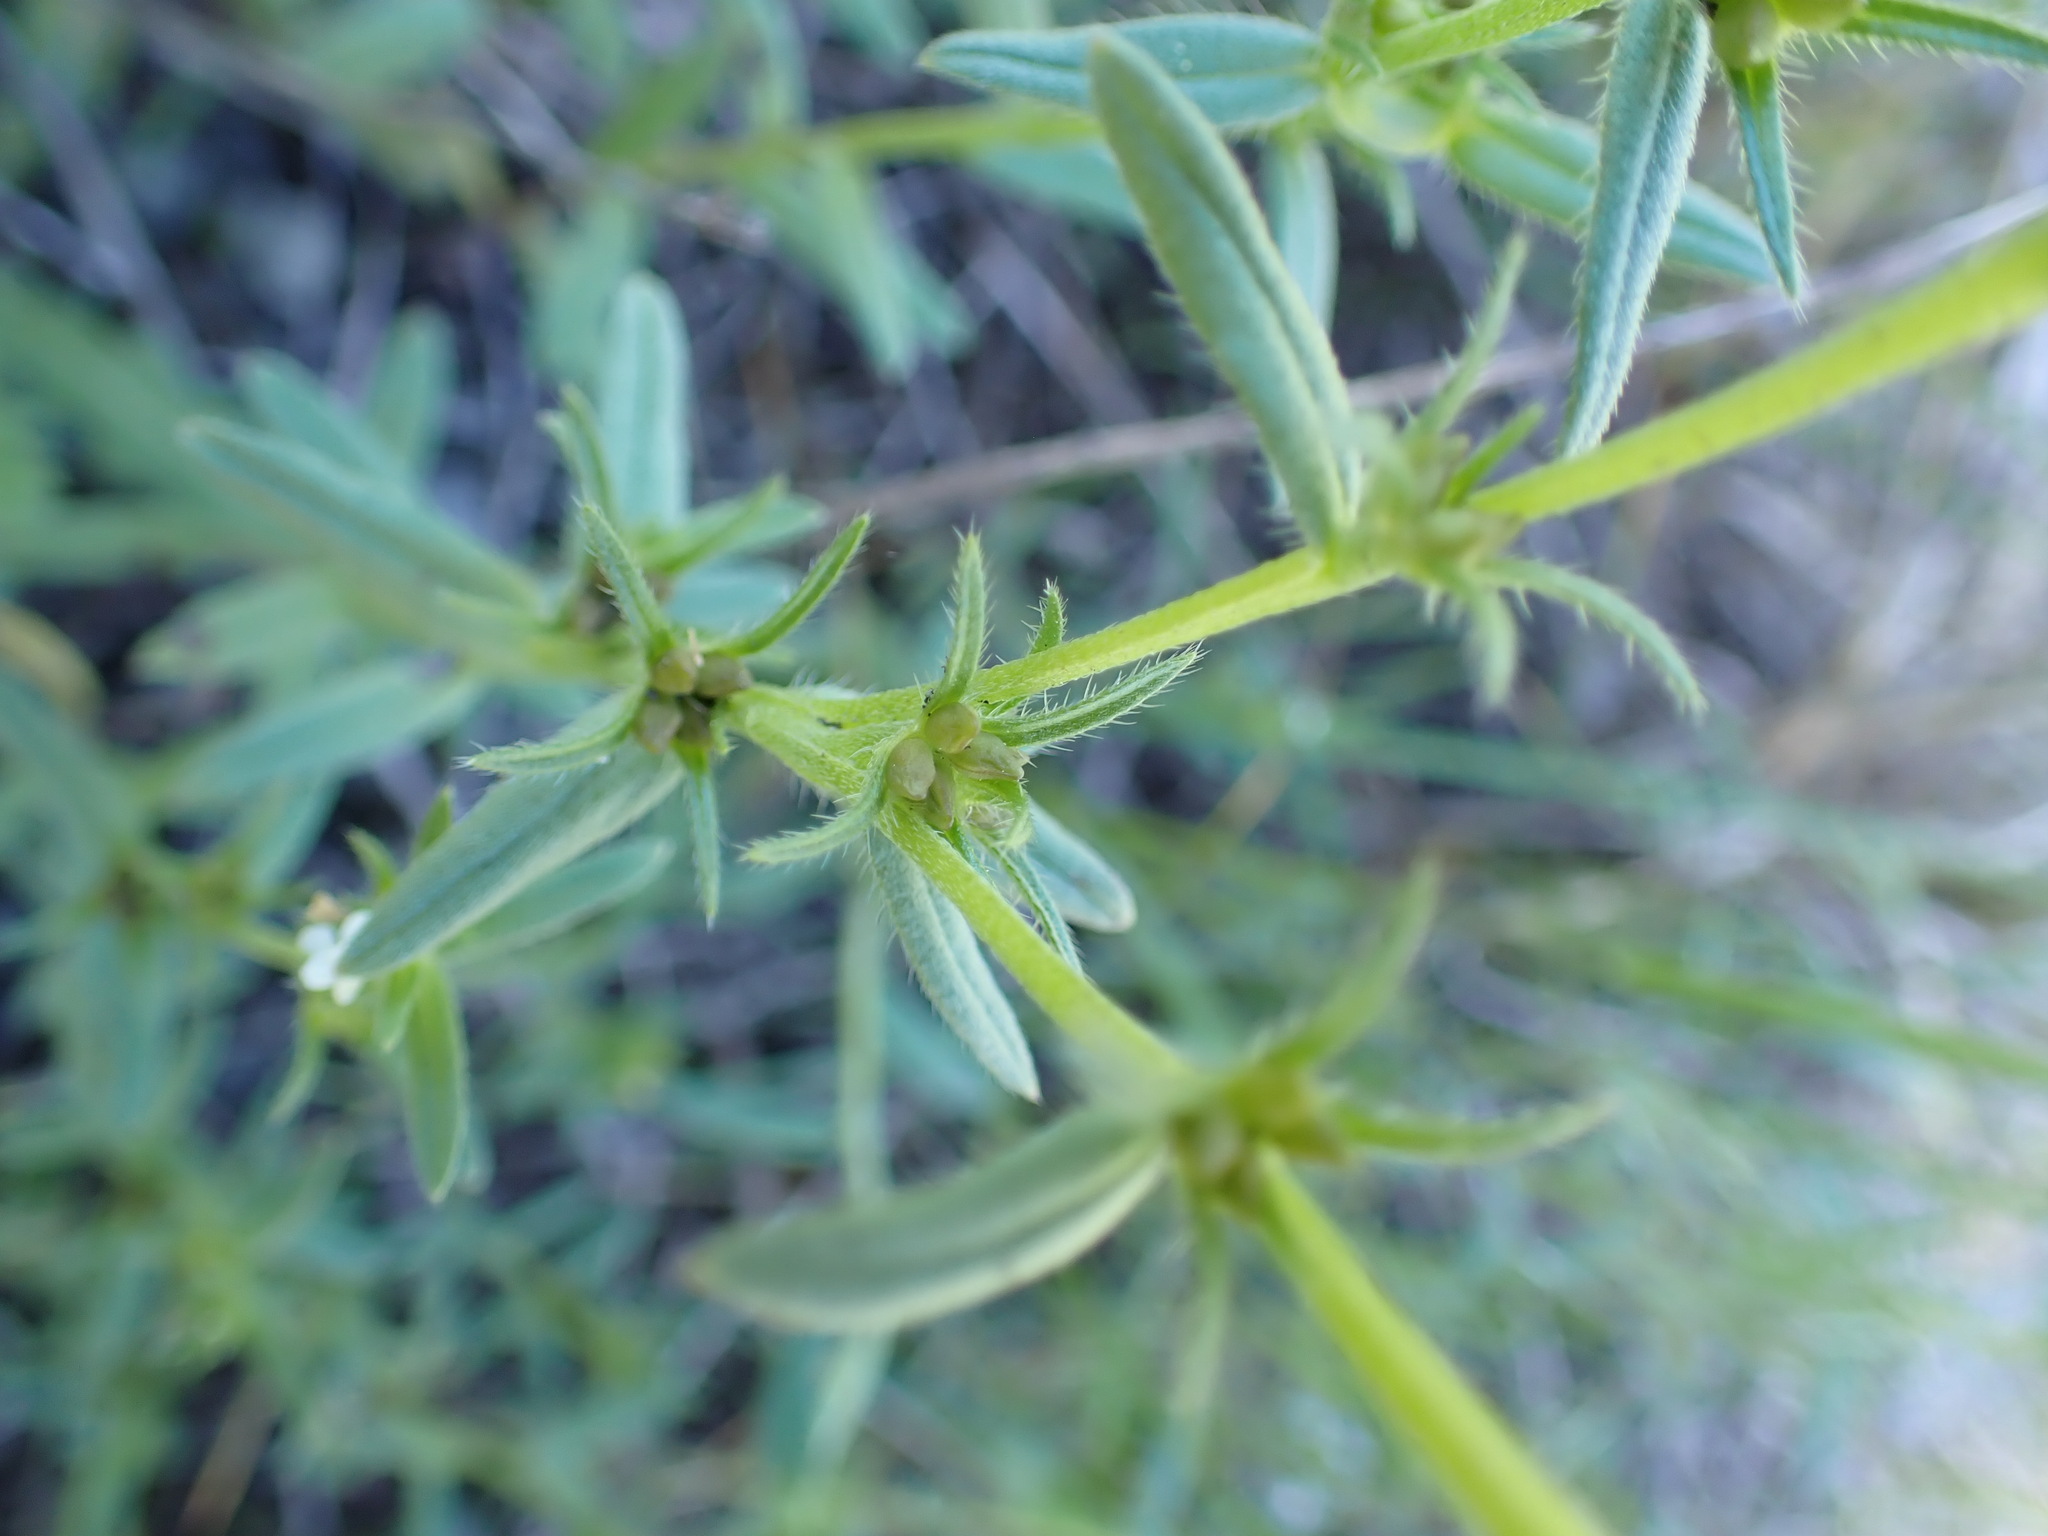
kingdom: Plantae
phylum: Tracheophyta
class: Magnoliopsida
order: Boraginales
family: Boraginaceae
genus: Buglossoides
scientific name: Buglossoides arvensis
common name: Corn gromwell
